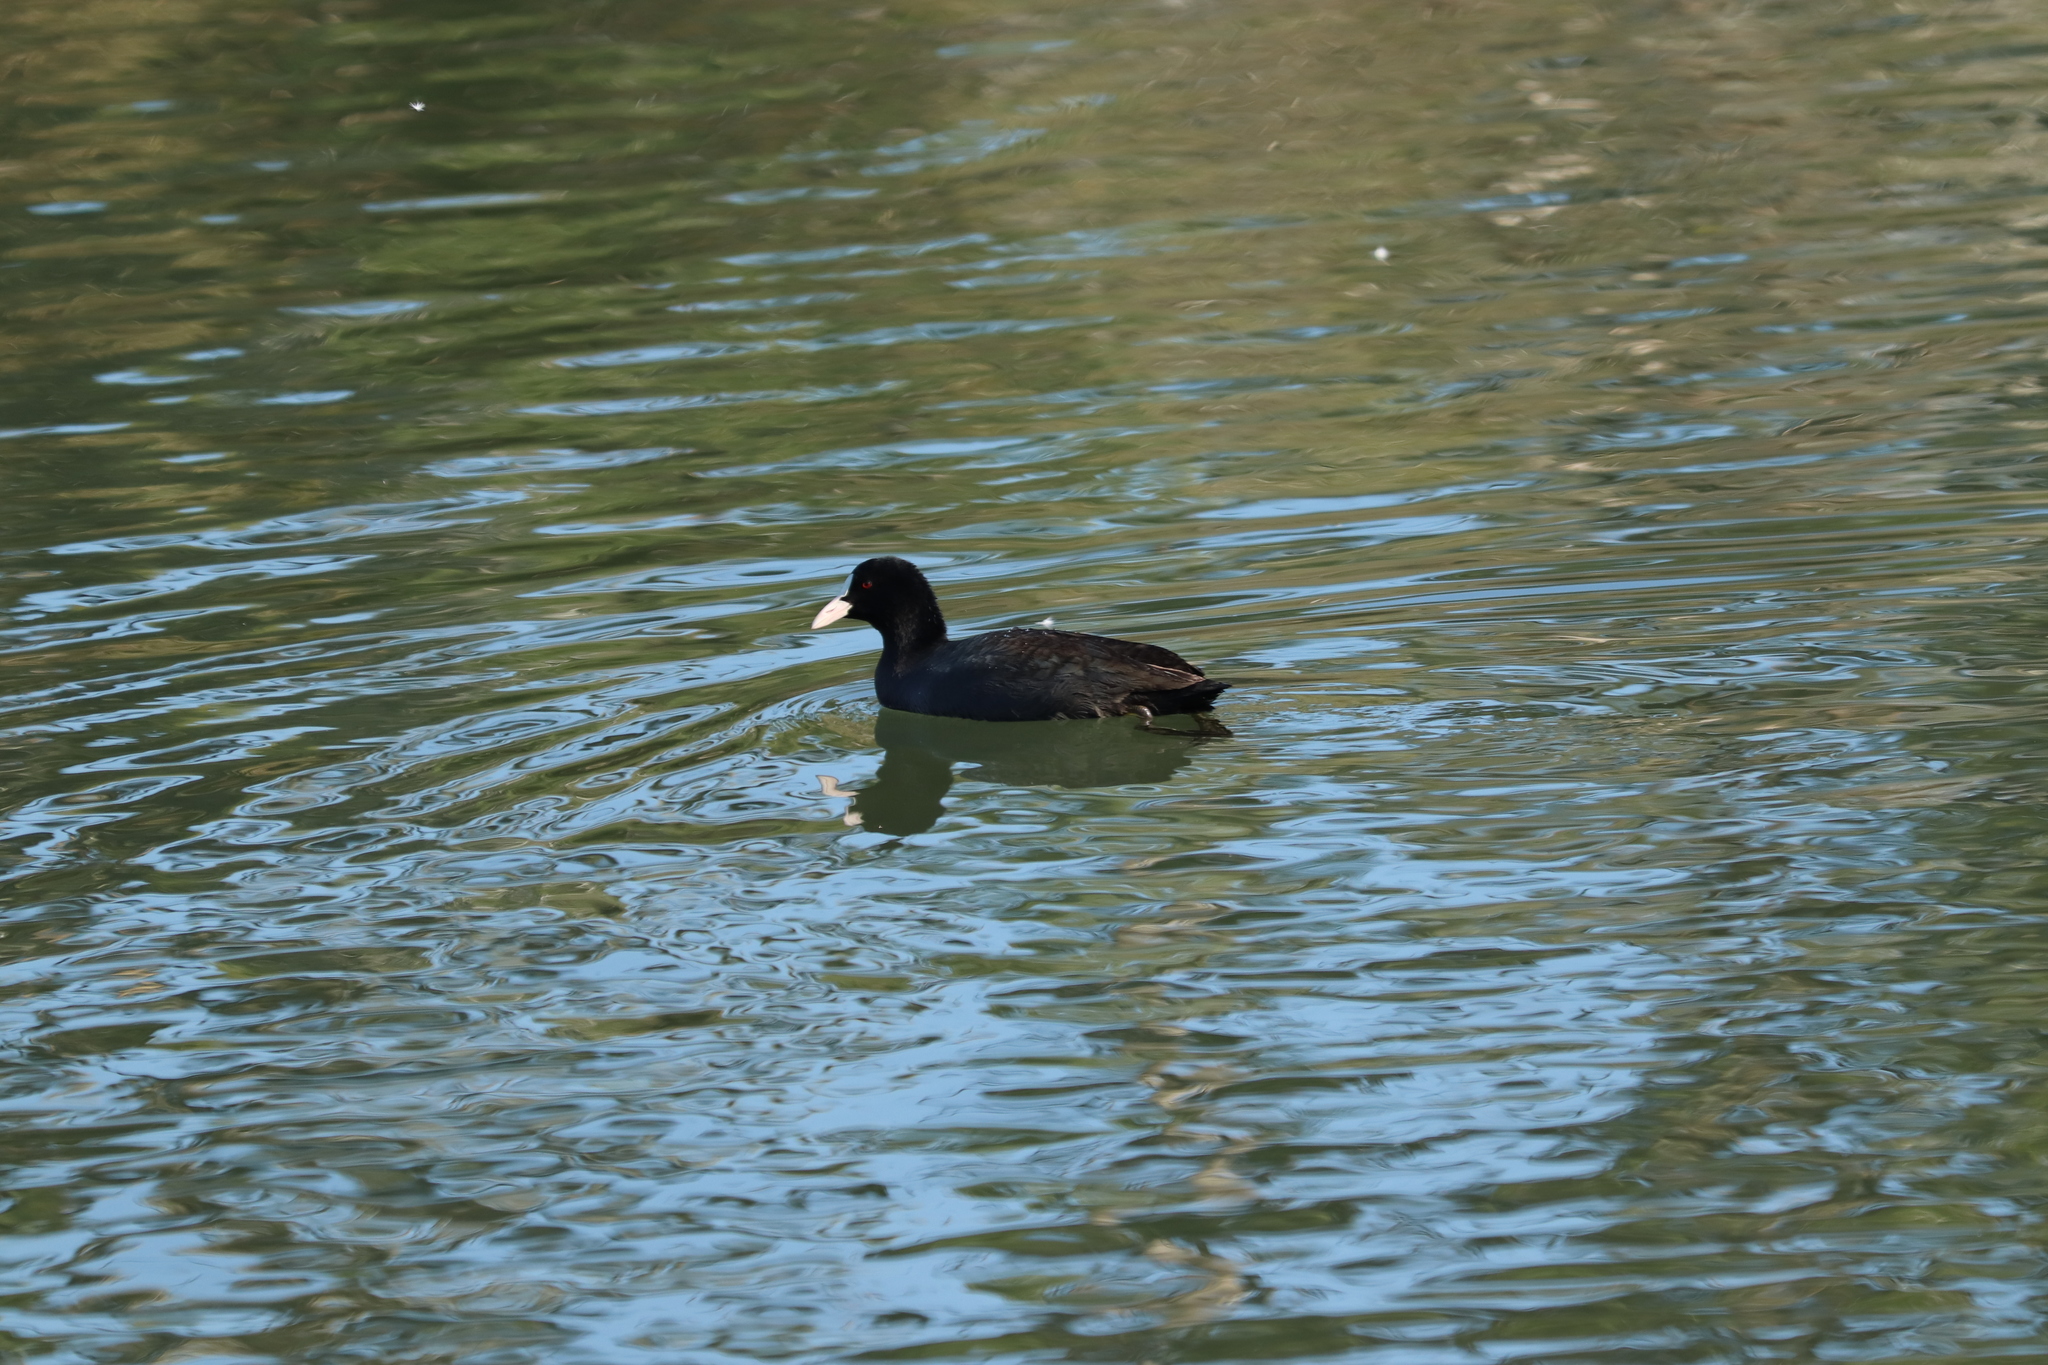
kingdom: Animalia
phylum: Chordata
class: Aves
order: Gruiformes
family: Rallidae
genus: Fulica
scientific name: Fulica atra
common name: Eurasian coot
